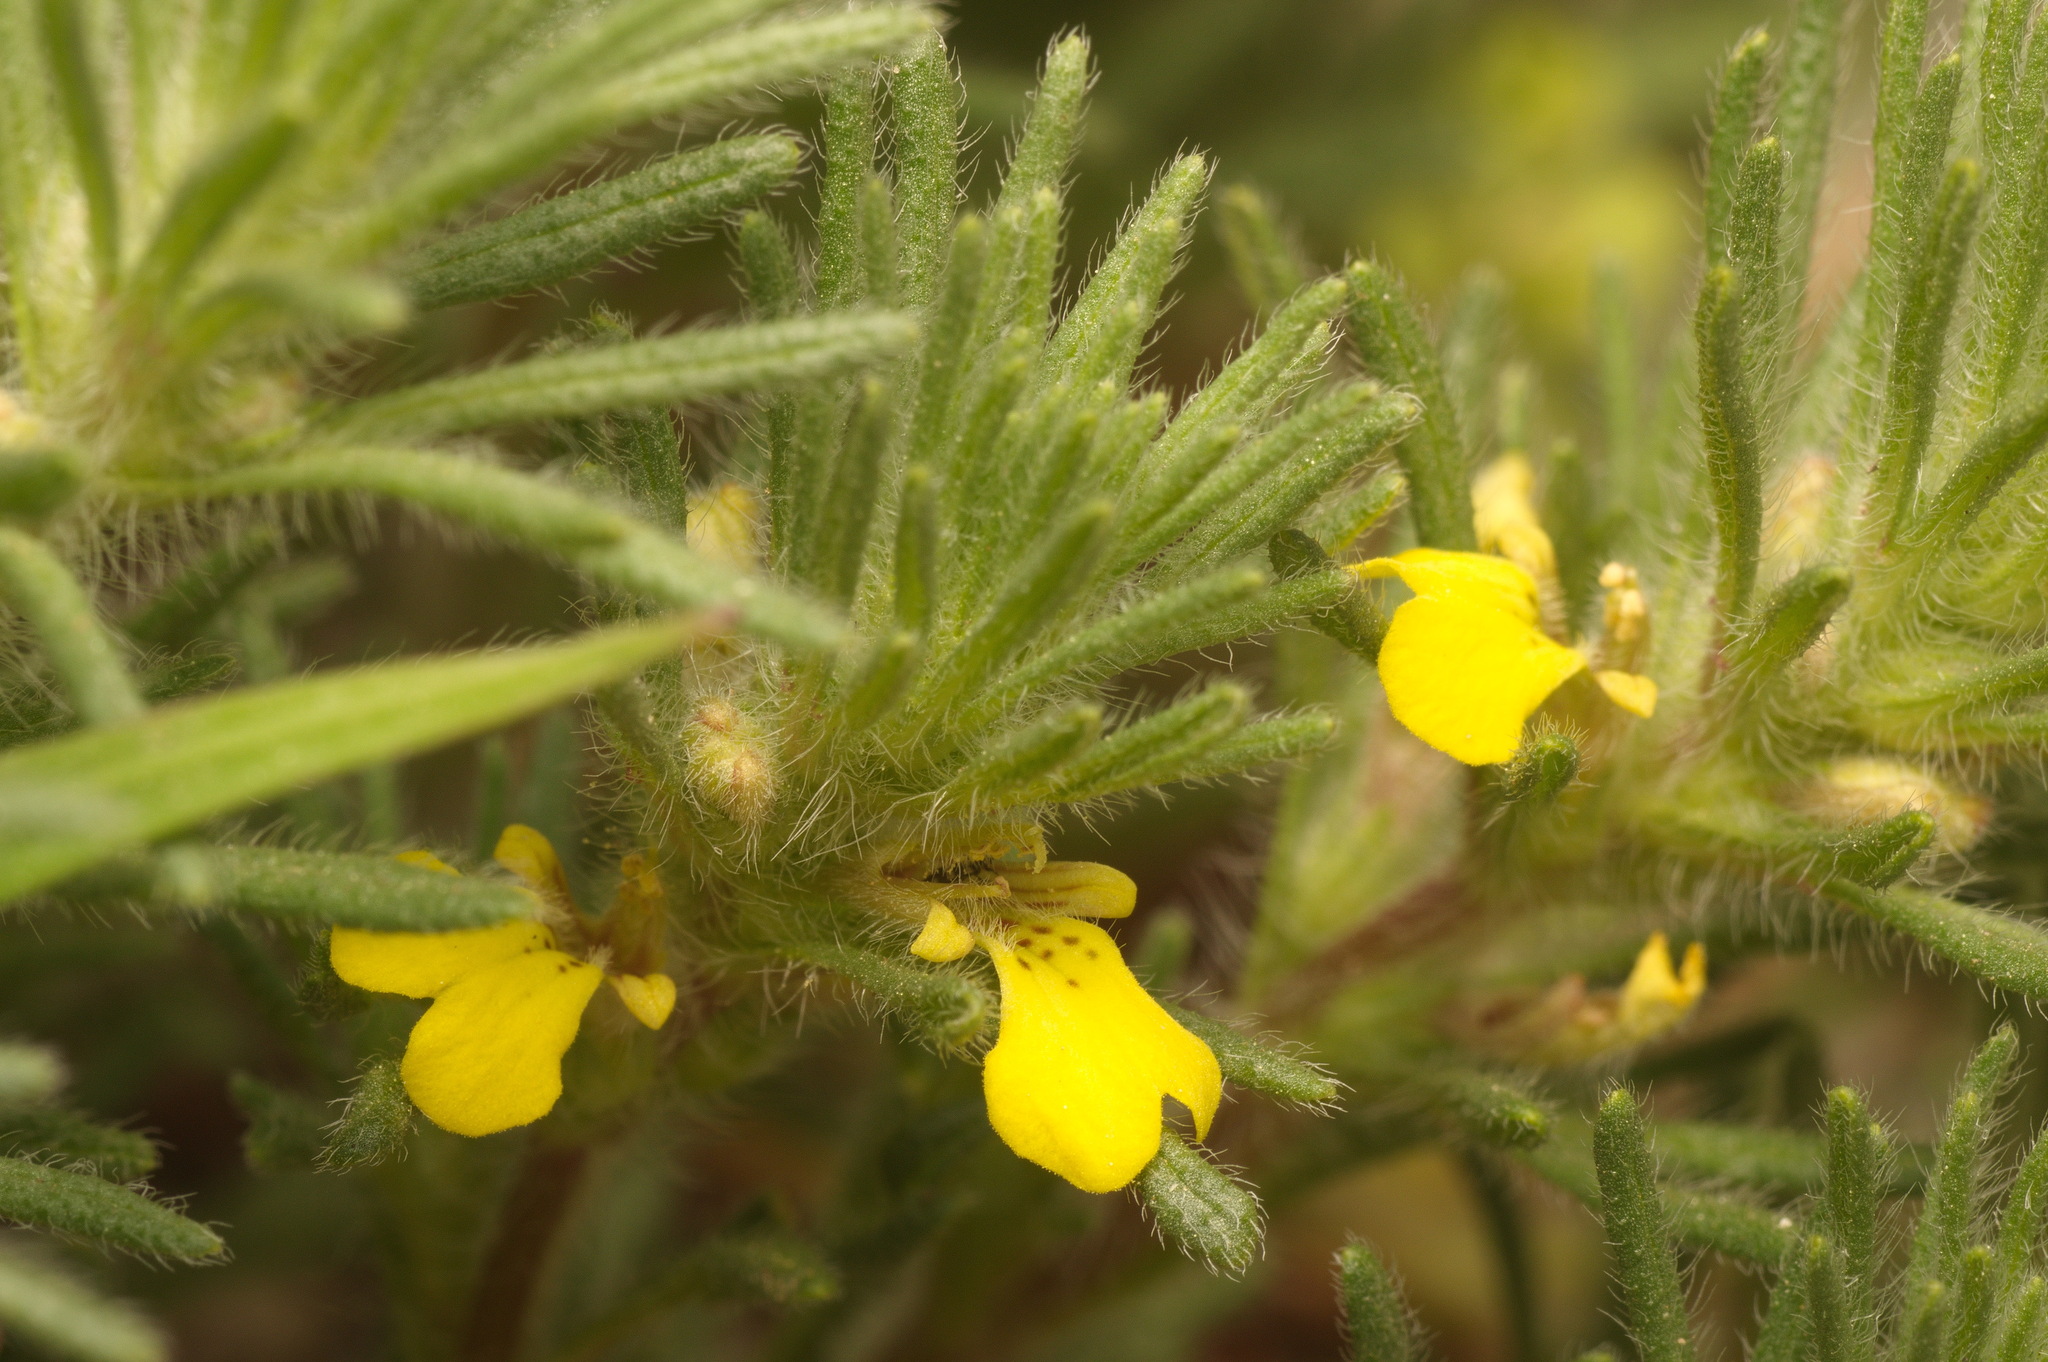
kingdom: Plantae
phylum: Tracheophyta
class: Magnoliopsida
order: Lamiales
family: Lamiaceae
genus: Ajuga
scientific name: Ajuga chamaepitys
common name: Ground-pine
